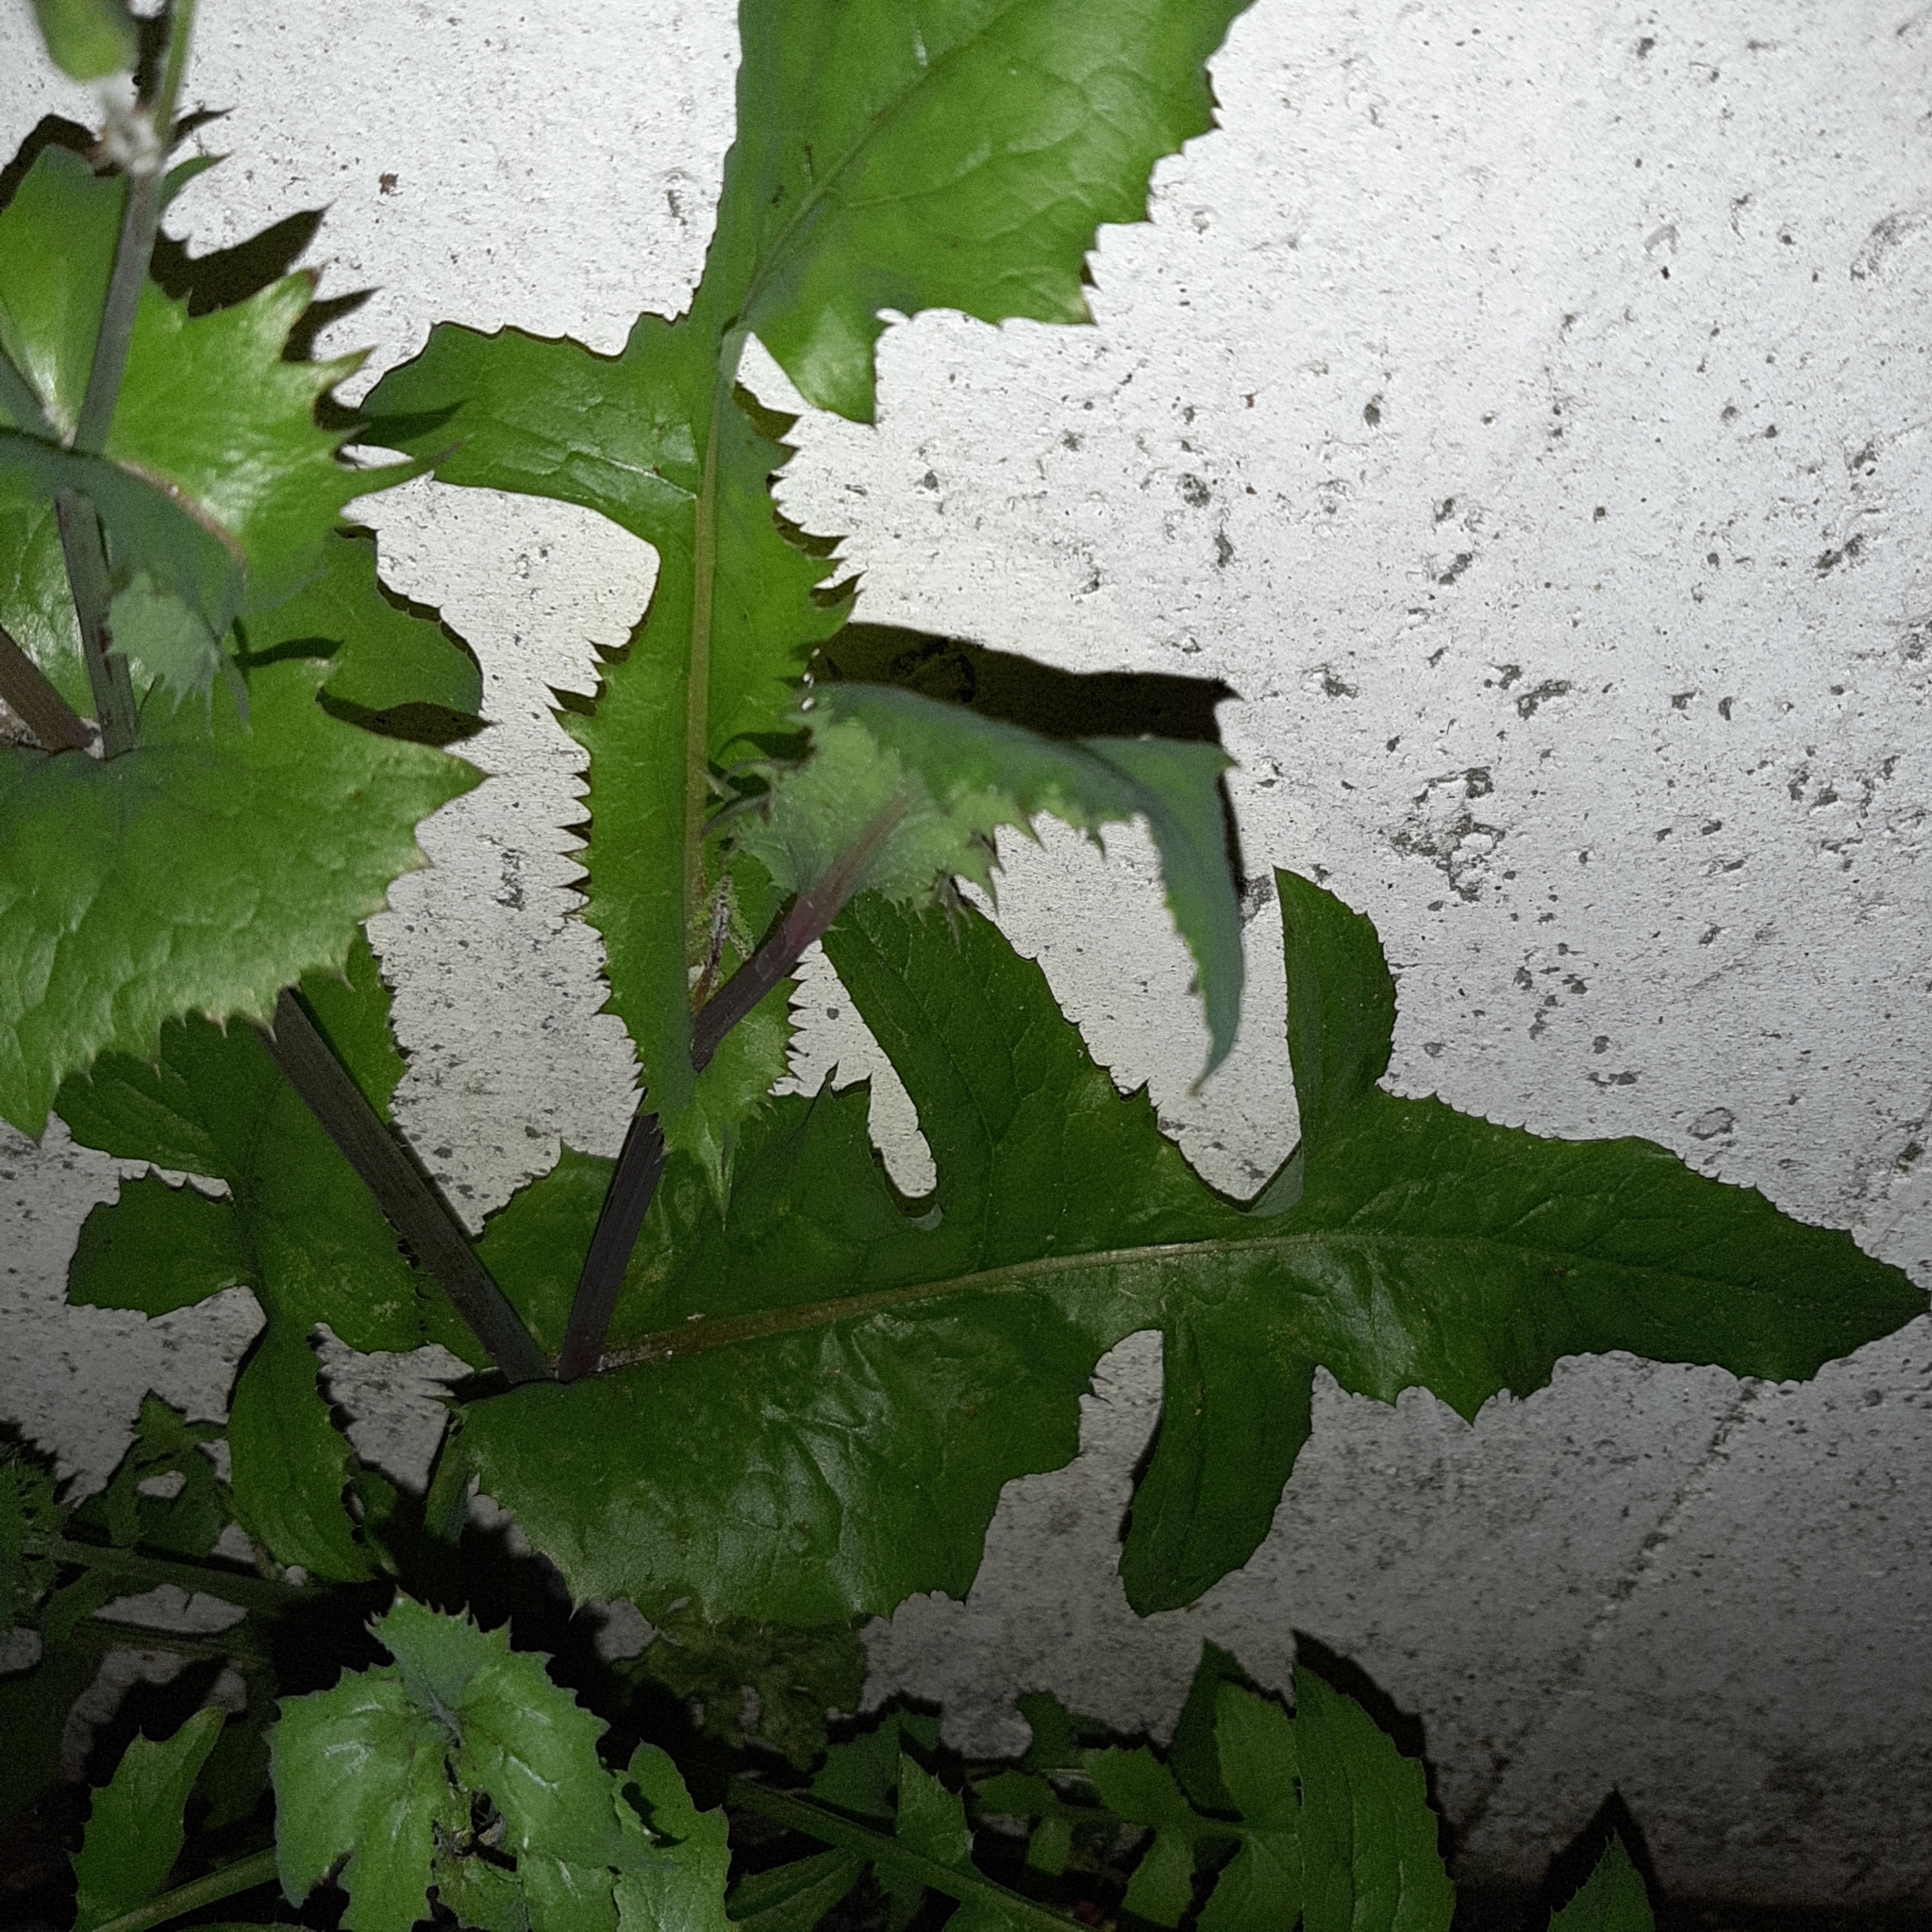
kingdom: Plantae
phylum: Tracheophyta
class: Magnoliopsida
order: Asterales
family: Asteraceae
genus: Sonchus
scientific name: Sonchus oleraceus
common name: Common sowthistle
